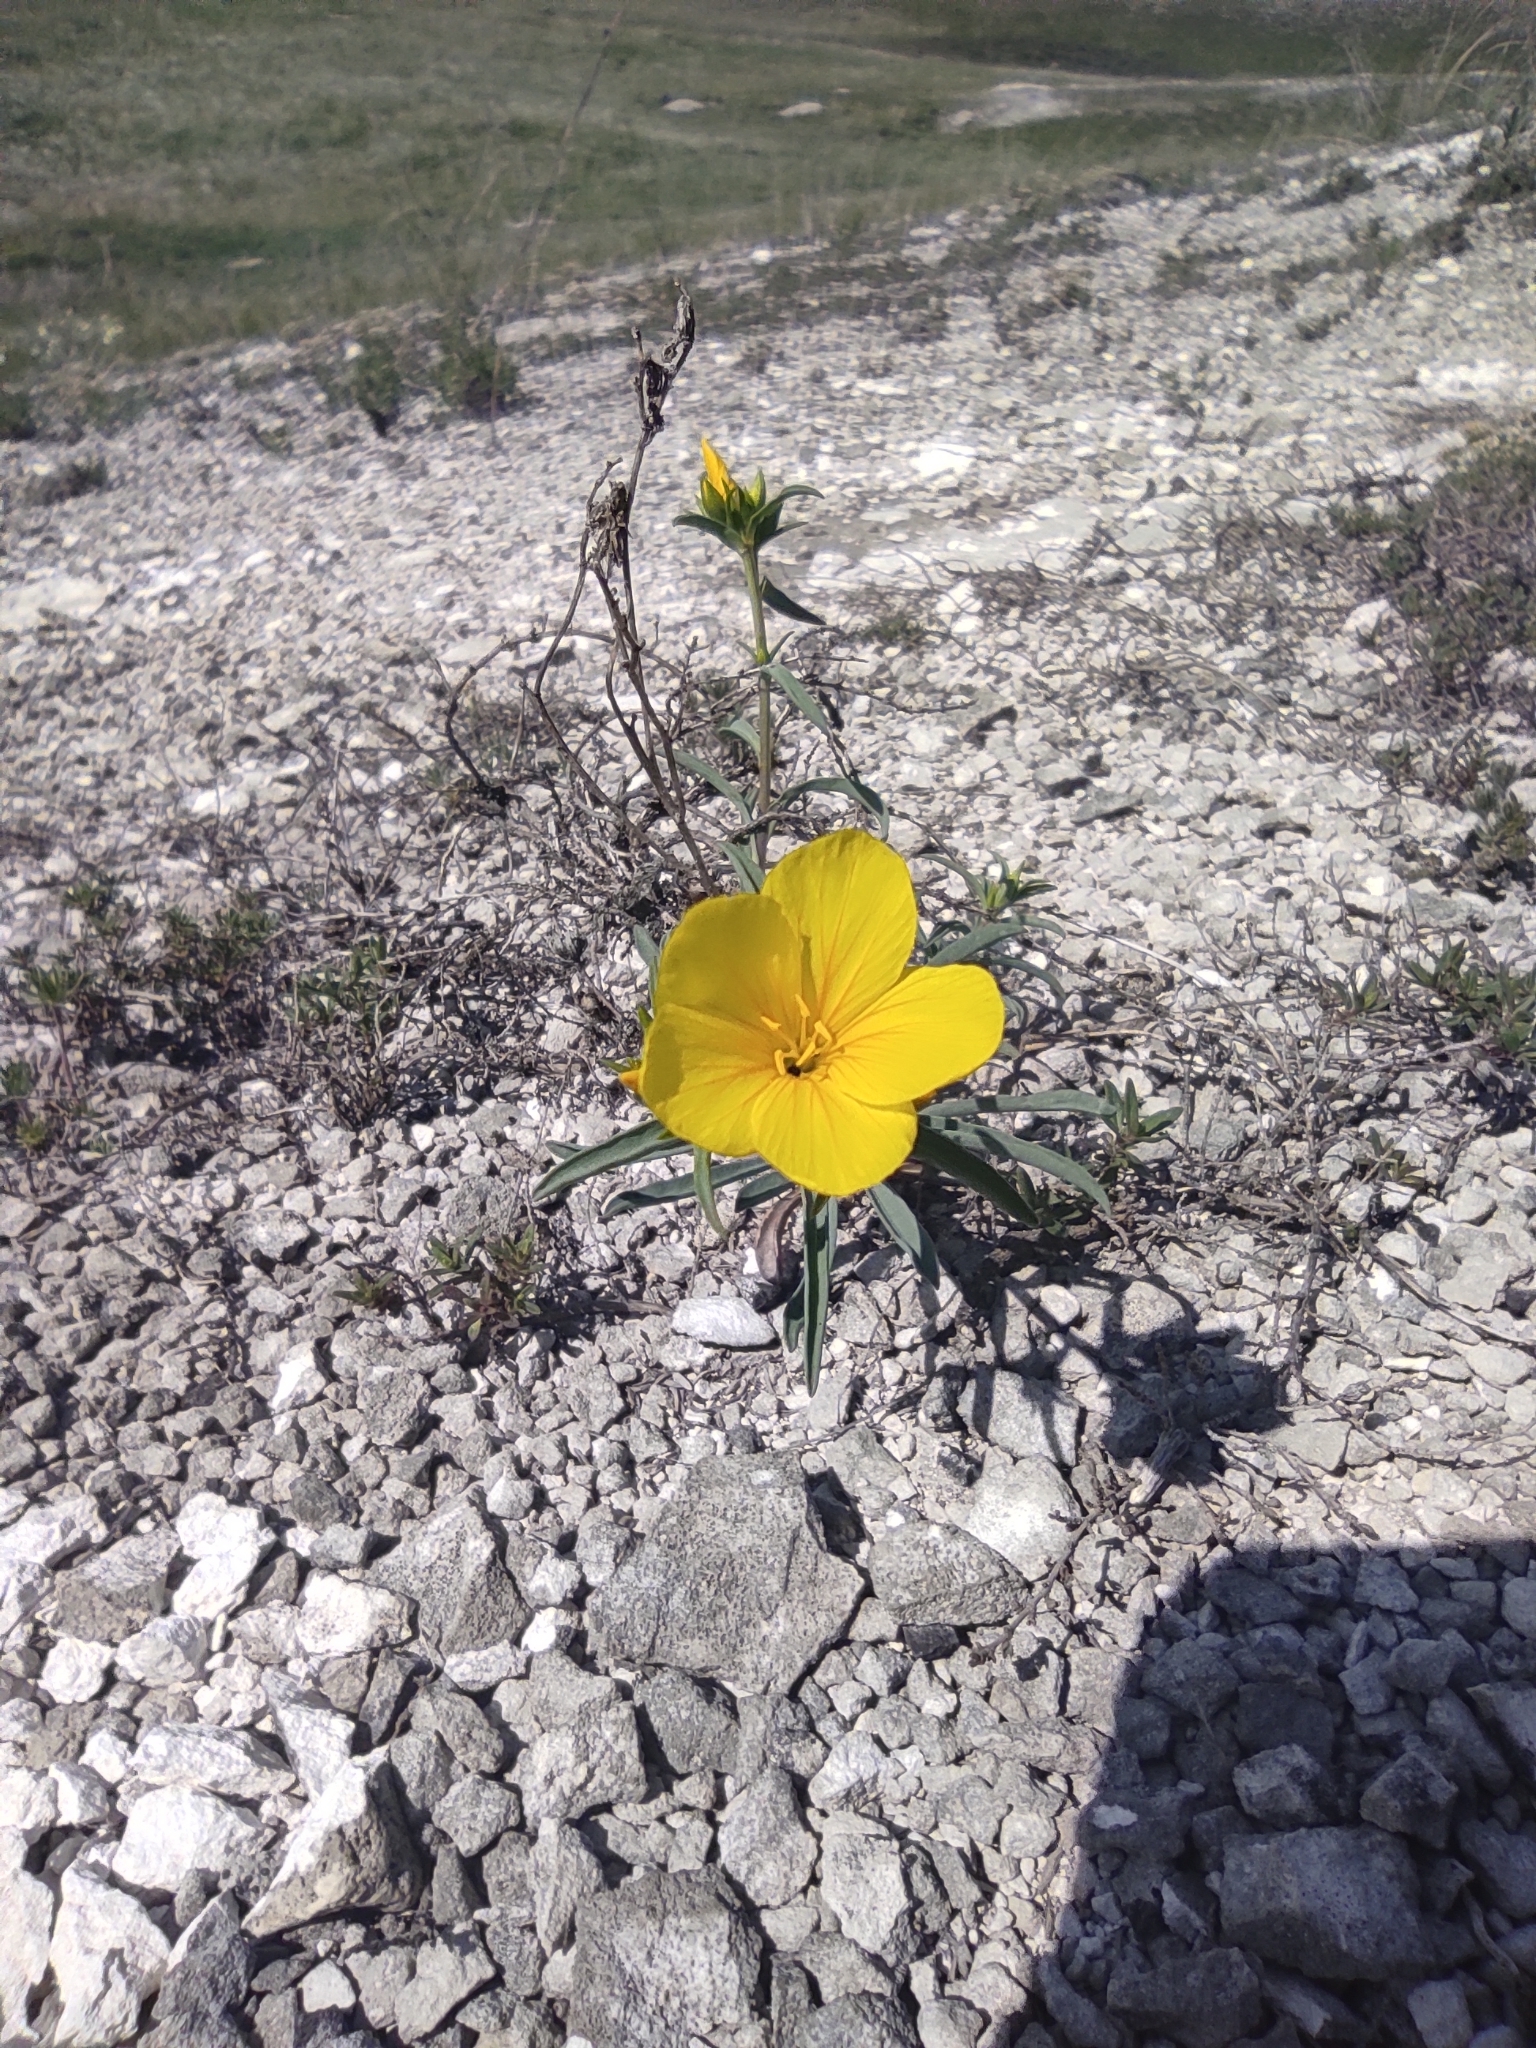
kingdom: Plantae
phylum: Tracheophyta
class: Magnoliopsida
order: Malpighiales
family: Linaceae
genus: Linum
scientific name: Linum ucranicum
